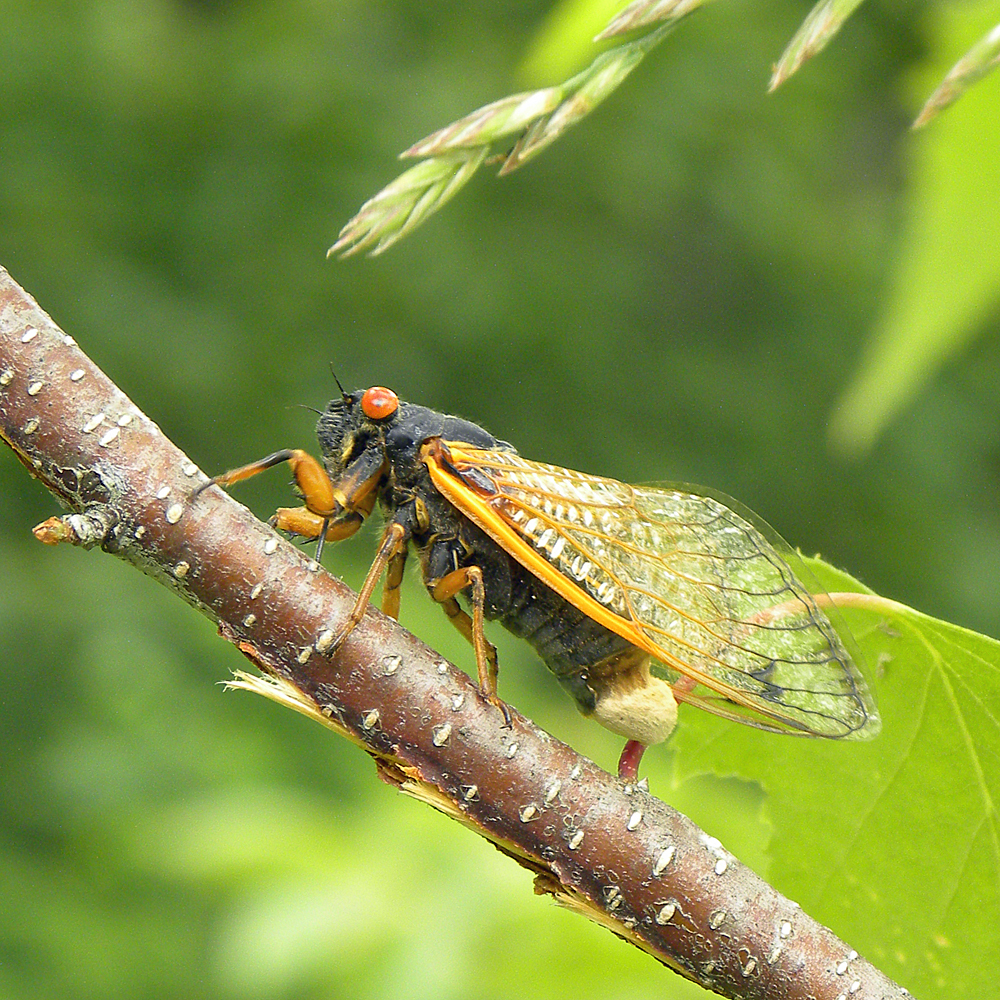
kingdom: Fungi
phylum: Entomophthoromycota
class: Entomophthoromycetes
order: Entomophthorales
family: Entomophthoraceae
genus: Massospora
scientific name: Massospora cicadina
